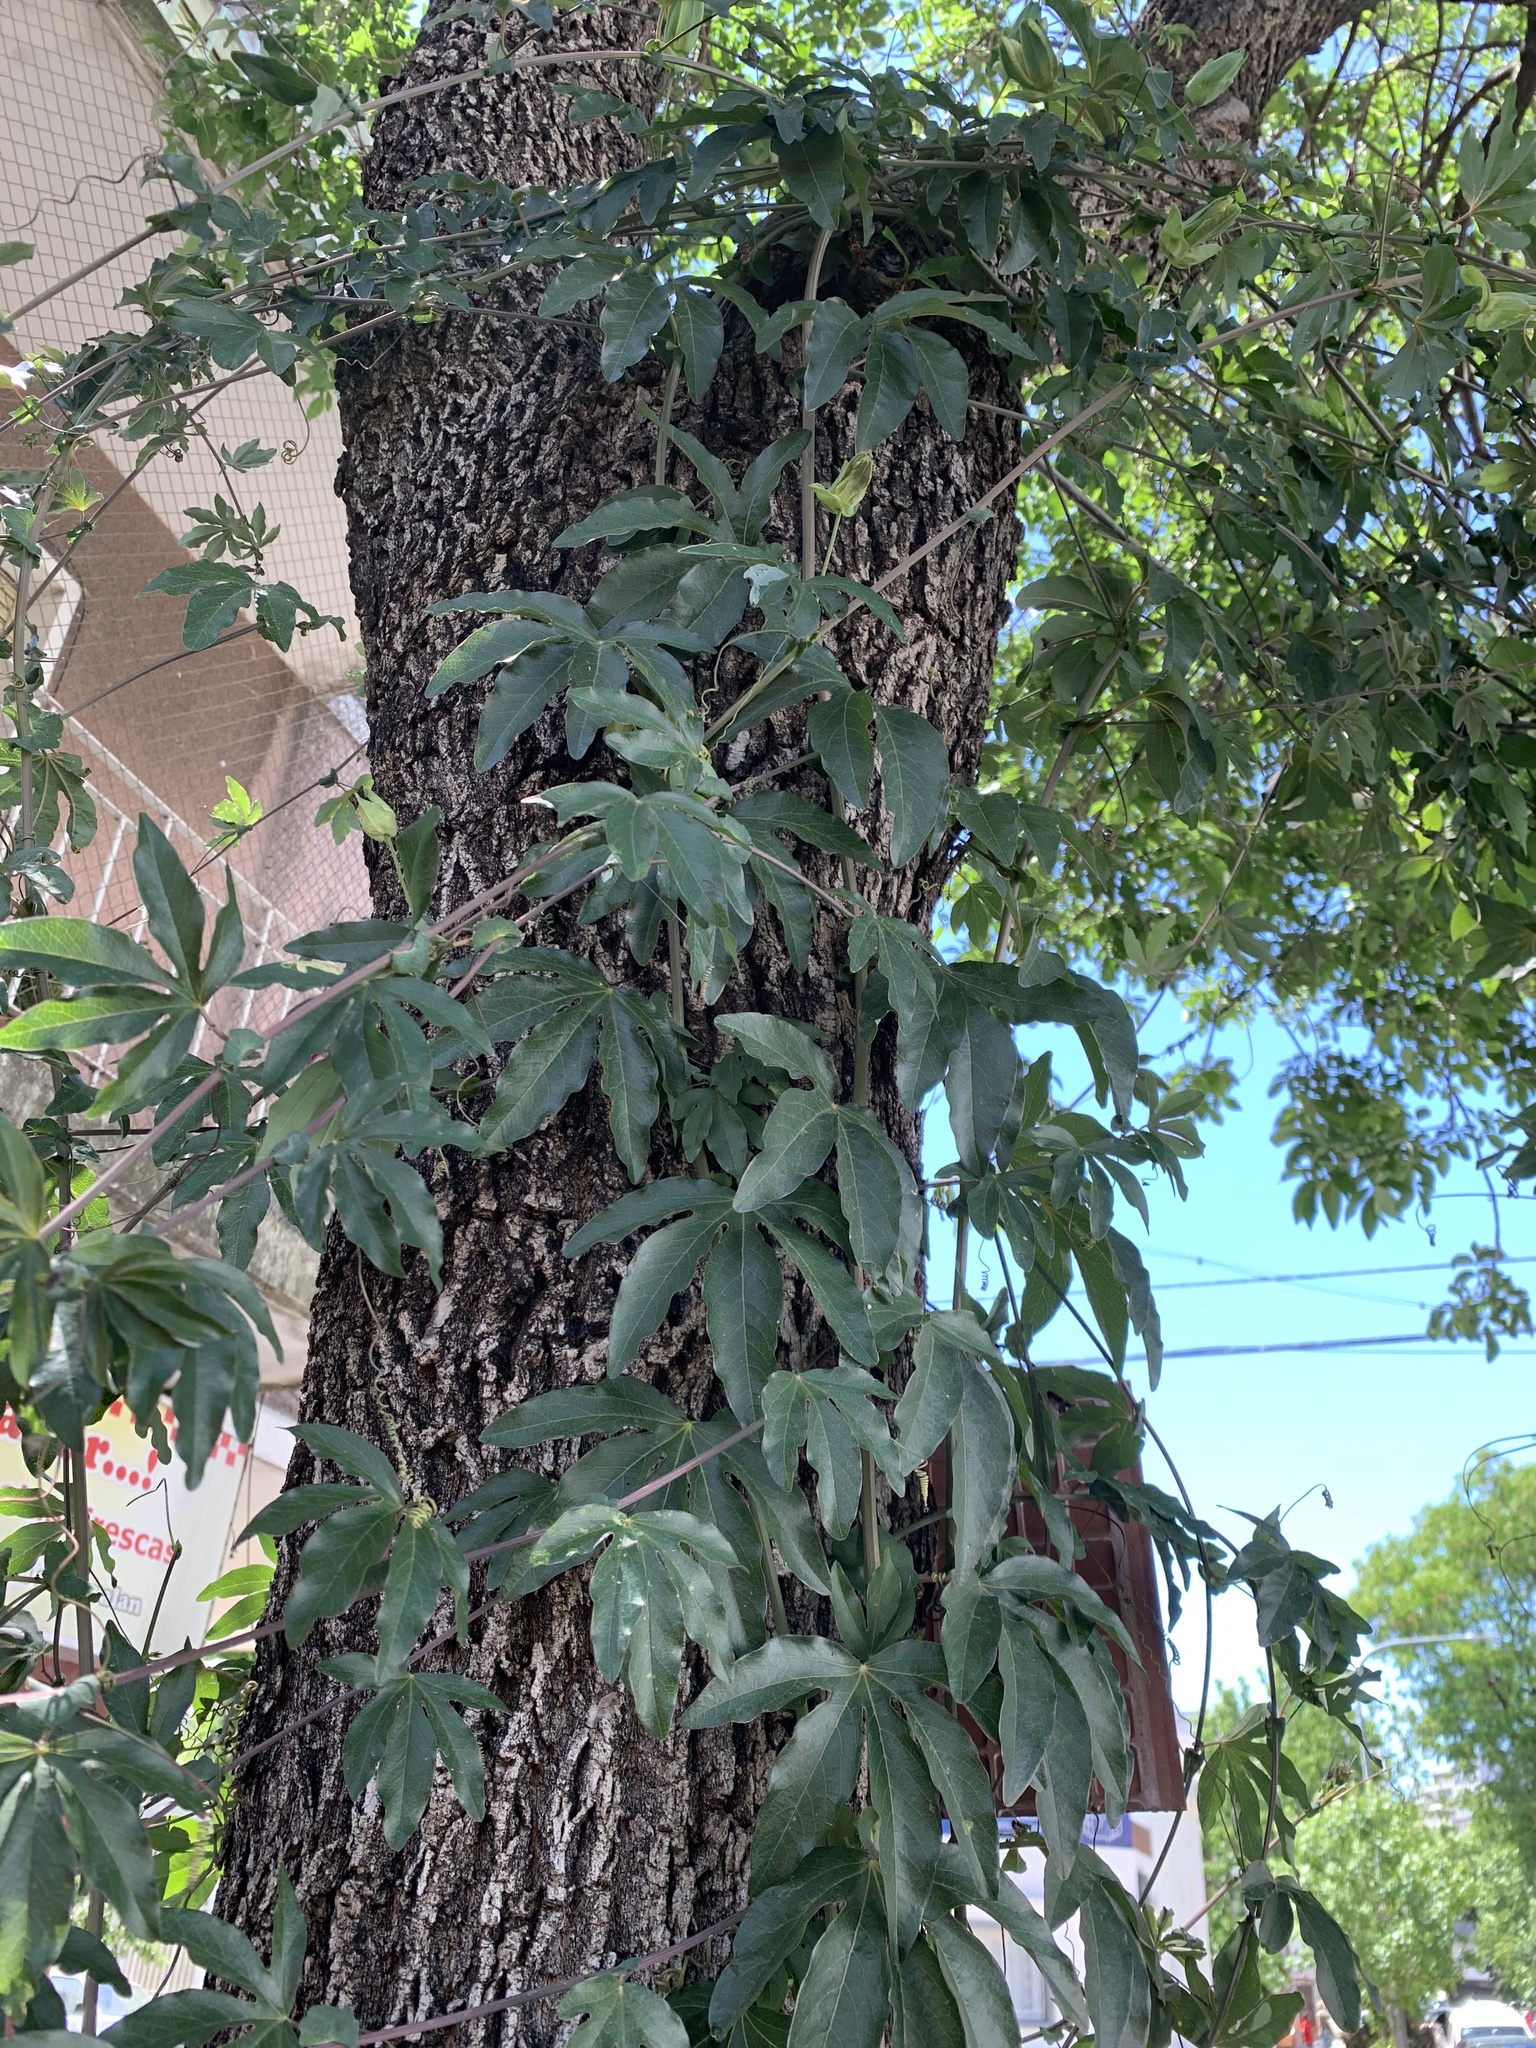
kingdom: Plantae
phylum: Tracheophyta
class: Magnoliopsida
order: Malpighiales
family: Passifloraceae
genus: Passiflora
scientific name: Passiflora caerulea
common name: Blue passionflower
